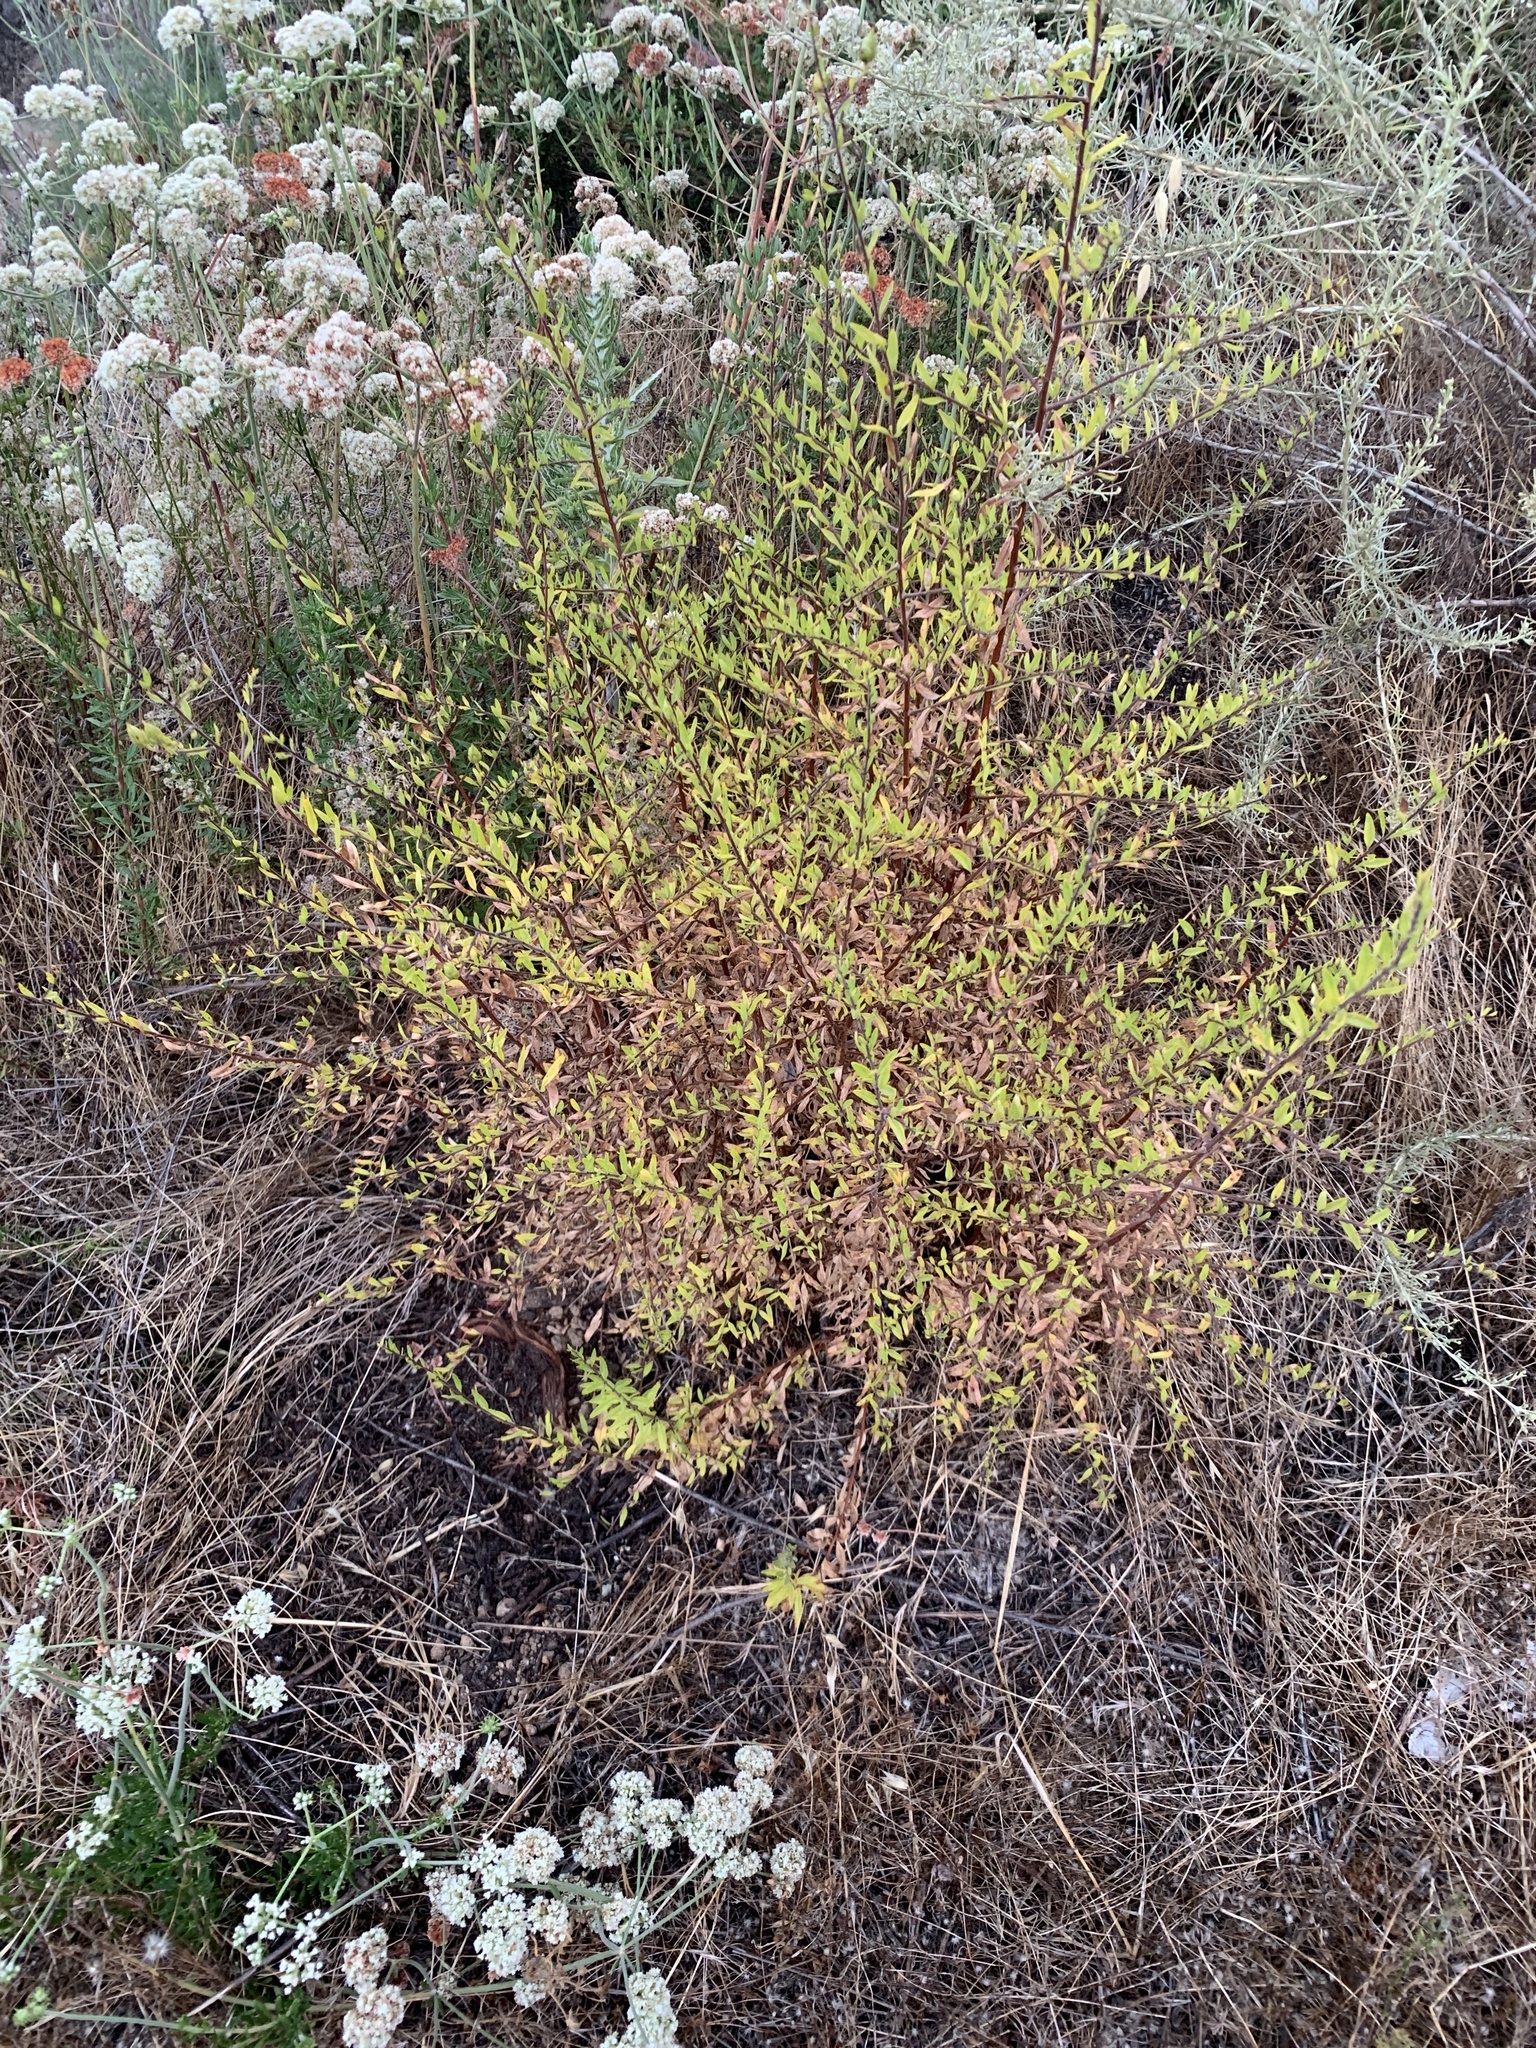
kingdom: Plantae
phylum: Tracheophyta
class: Magnoliopsida
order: Lamiales
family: Plantaginaceae
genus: Keckiella
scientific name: Keckiella antirrhinoides
